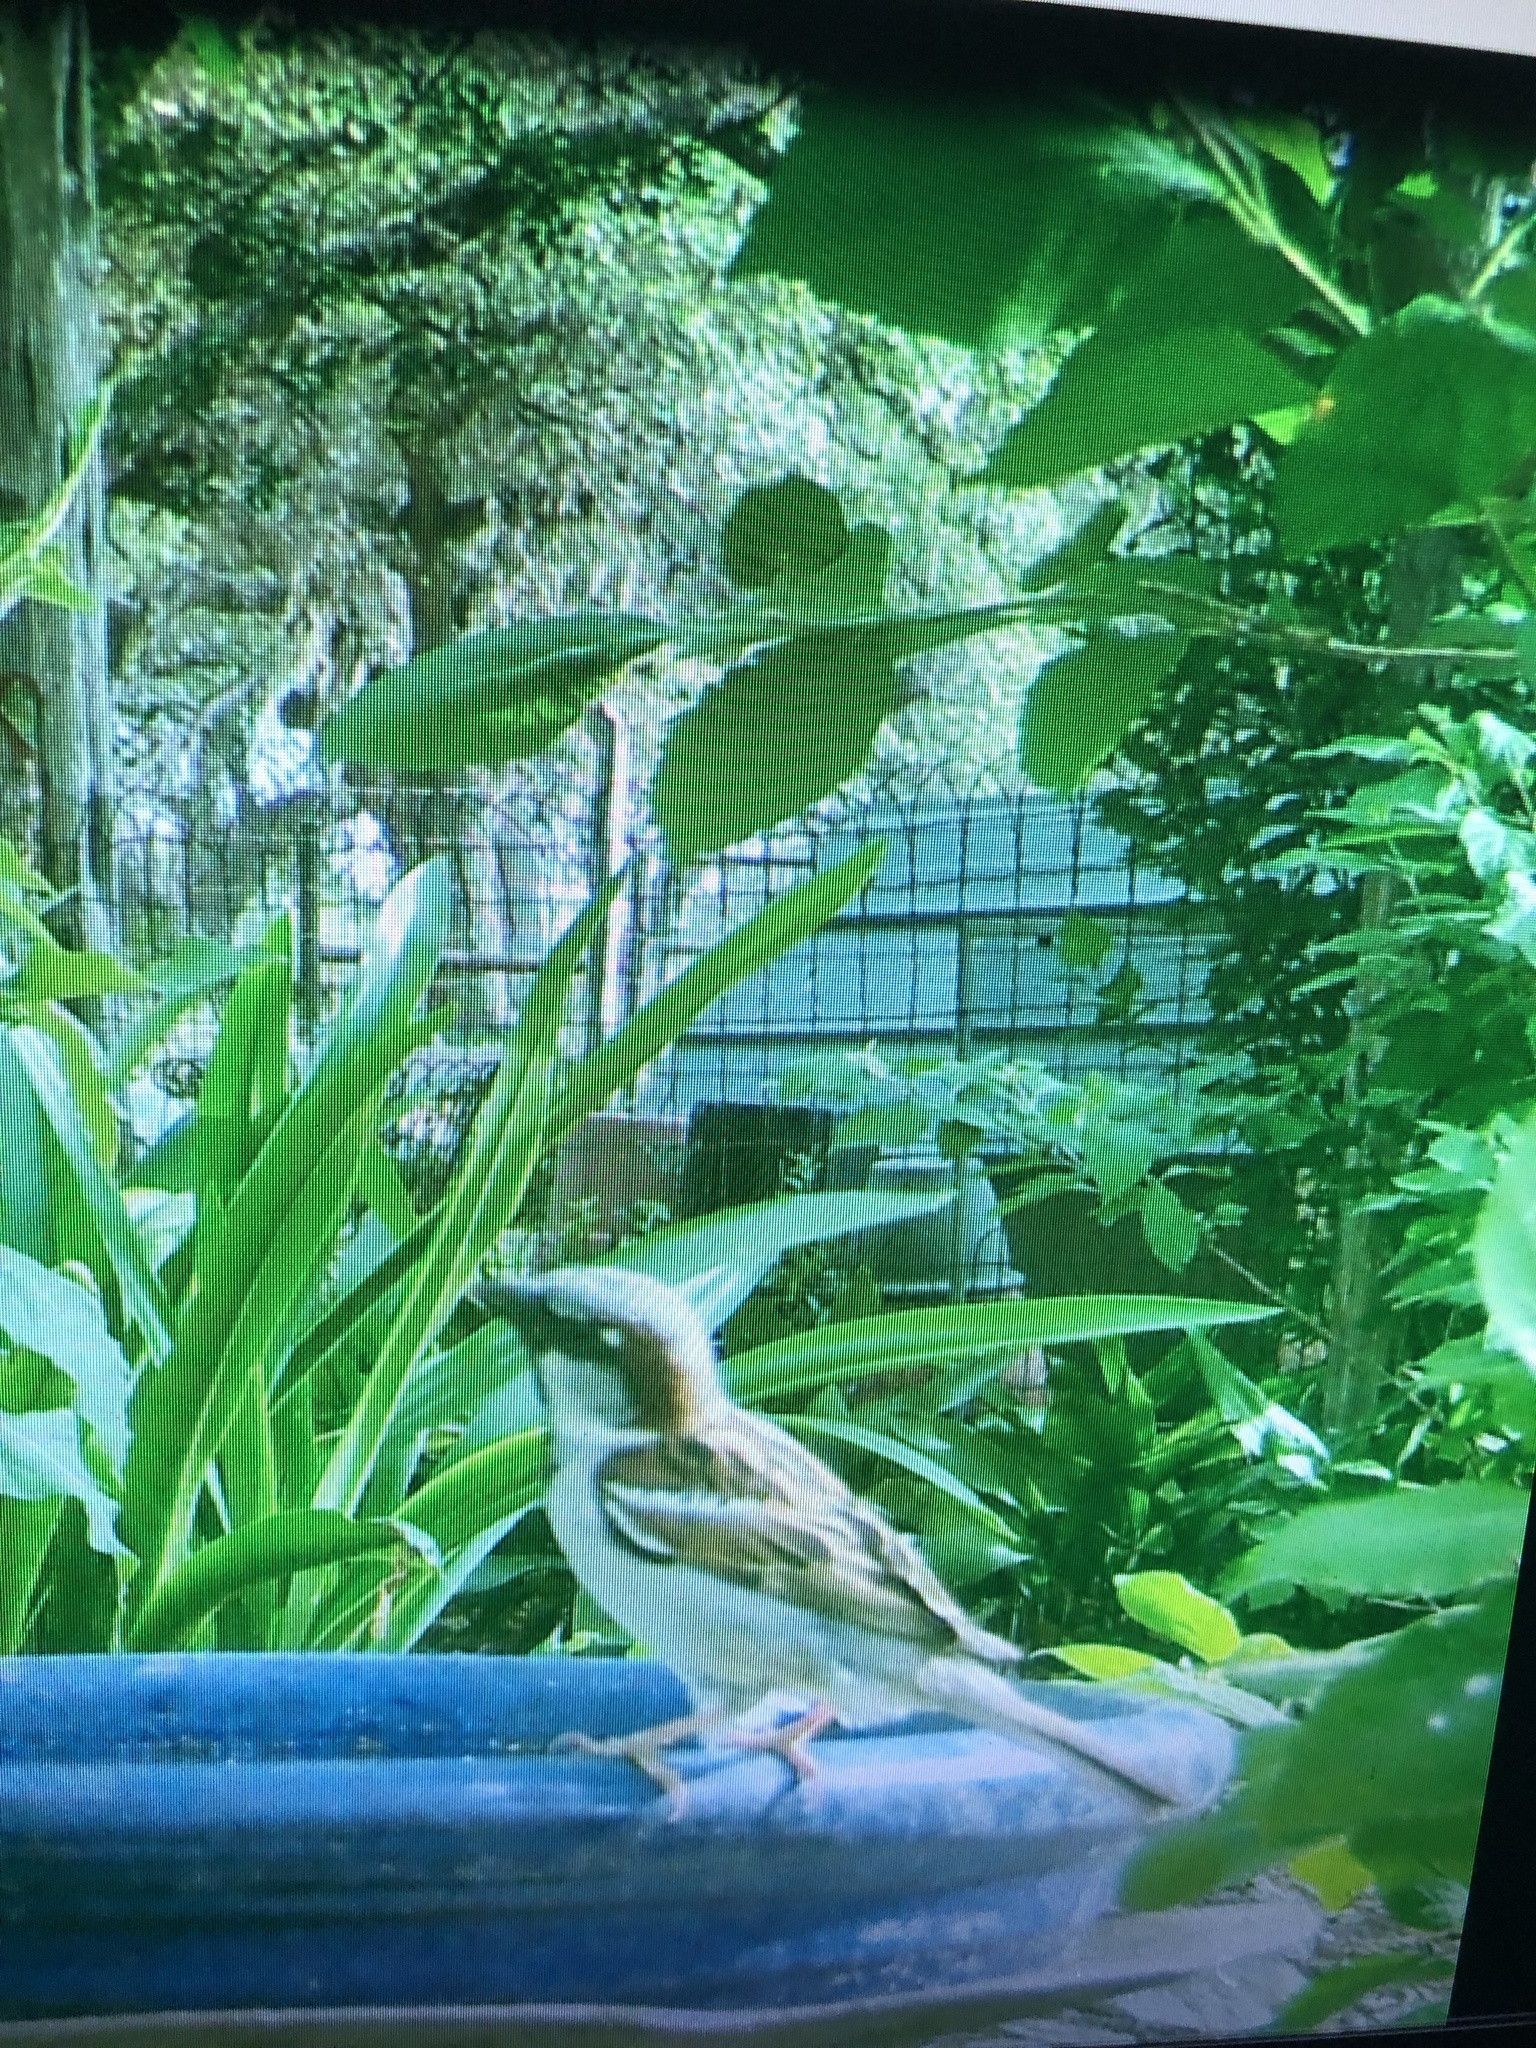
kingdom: Animalia
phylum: Chordata
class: Aves
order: Passeriformes
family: Passeridae
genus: Passer
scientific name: Passer domesticus
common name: House sparrow
